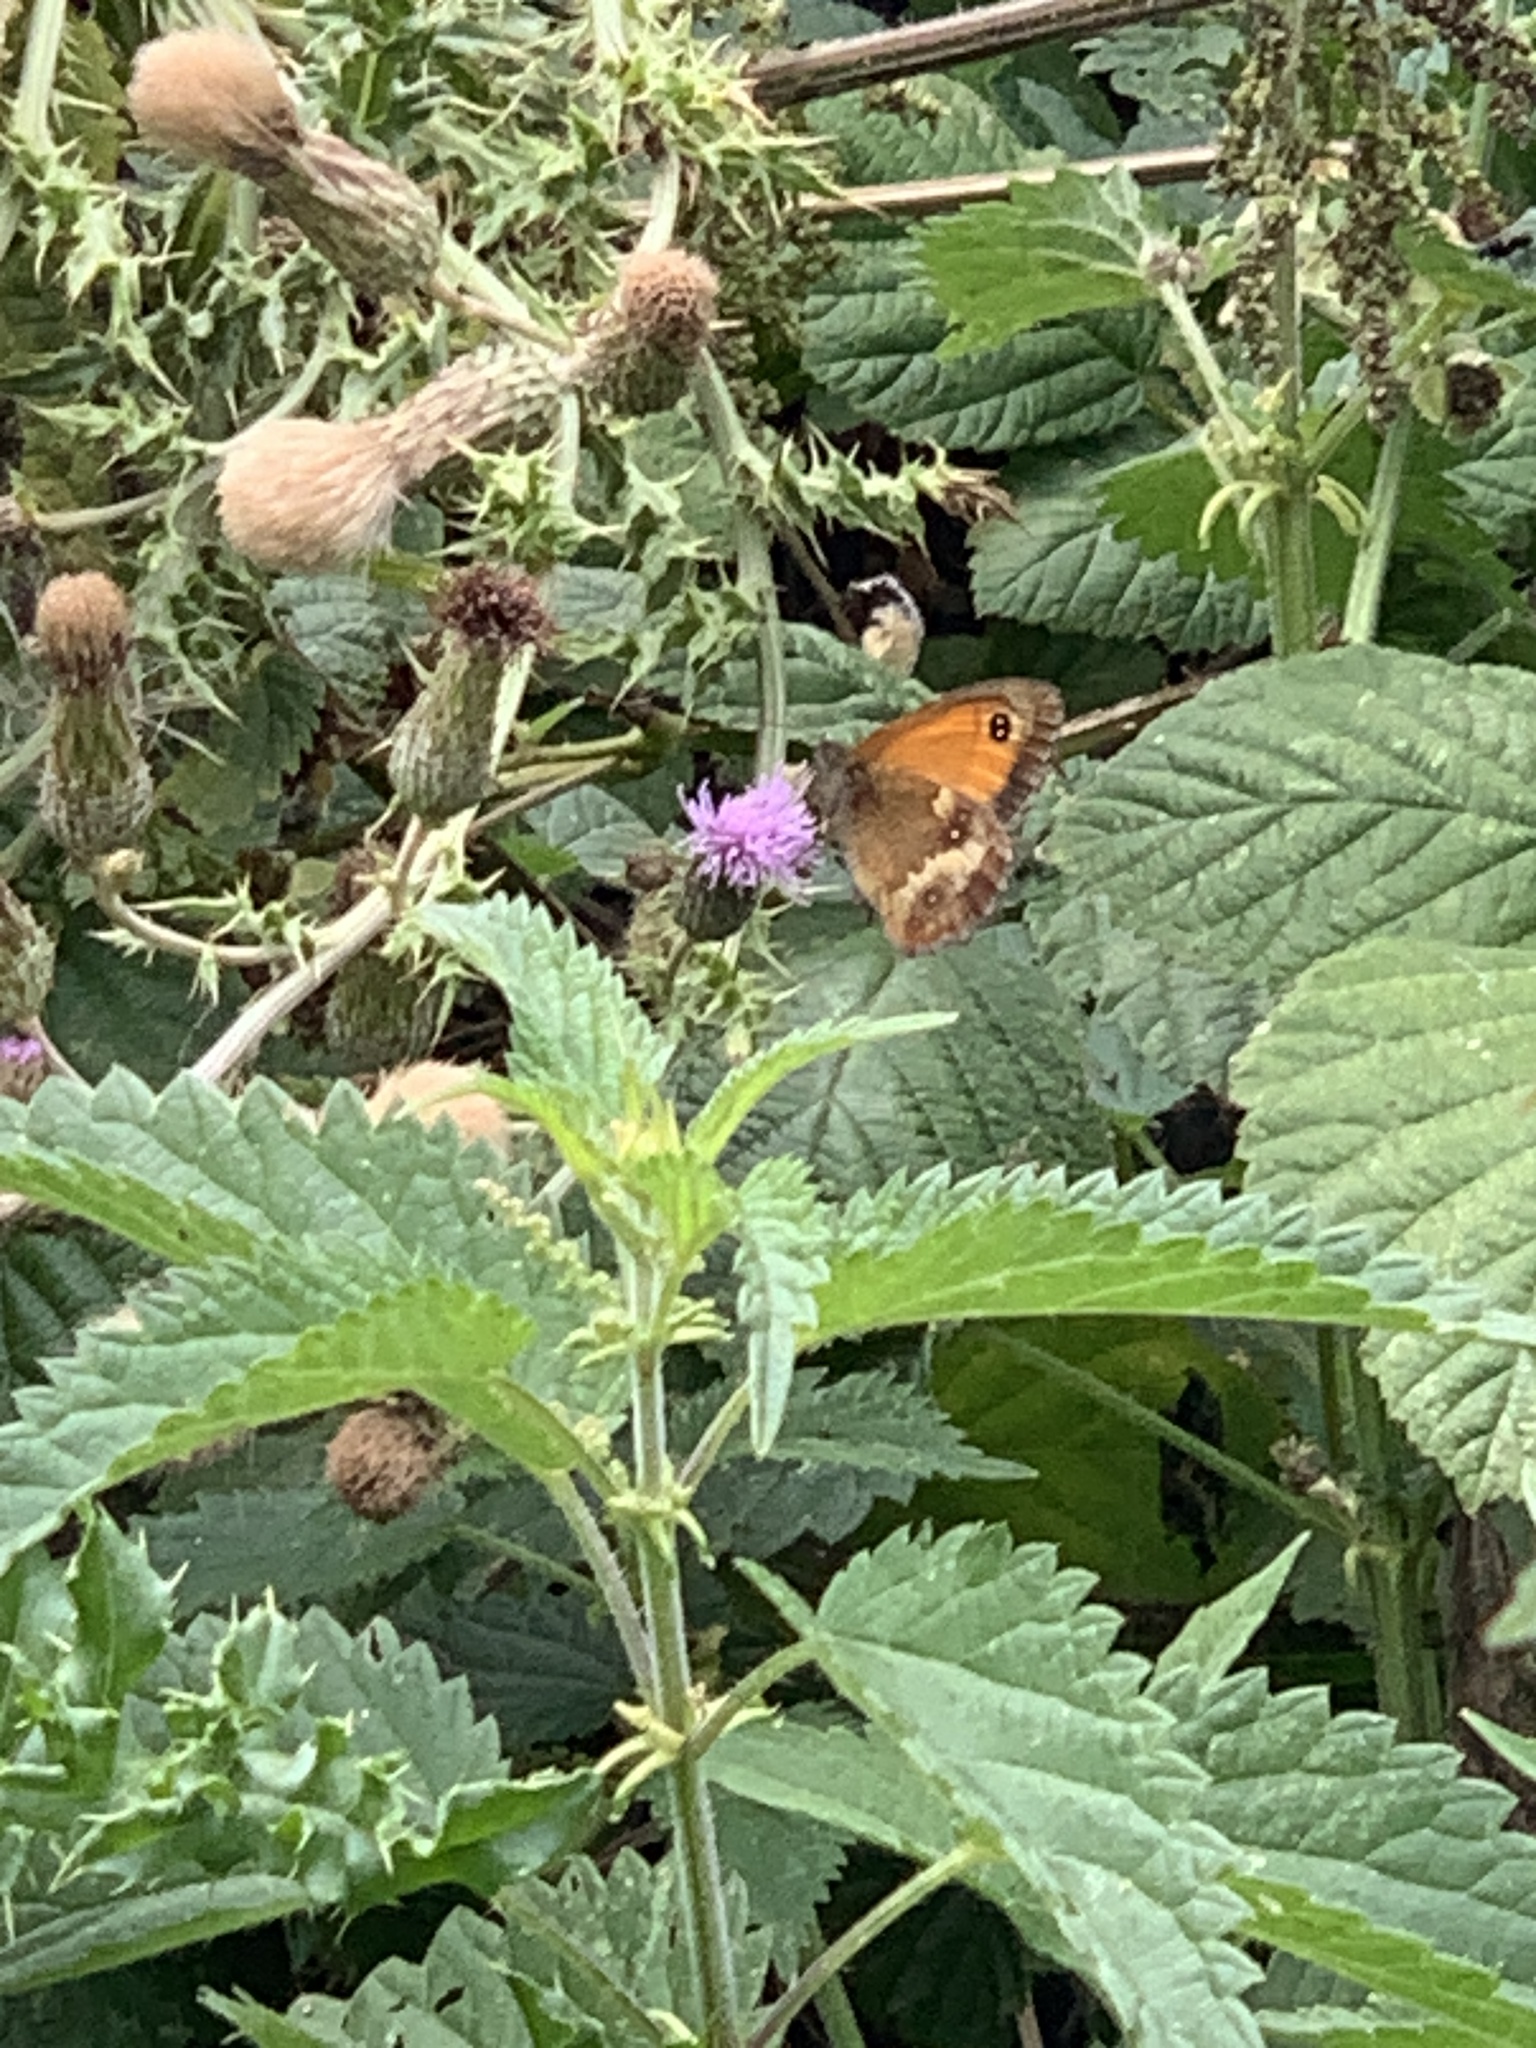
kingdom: Animalia
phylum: Arthropoda
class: Insecta
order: Lepidoptera
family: Nymphalidae
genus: Pyronia
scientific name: Pyronia tithonus
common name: Gatekeeper
